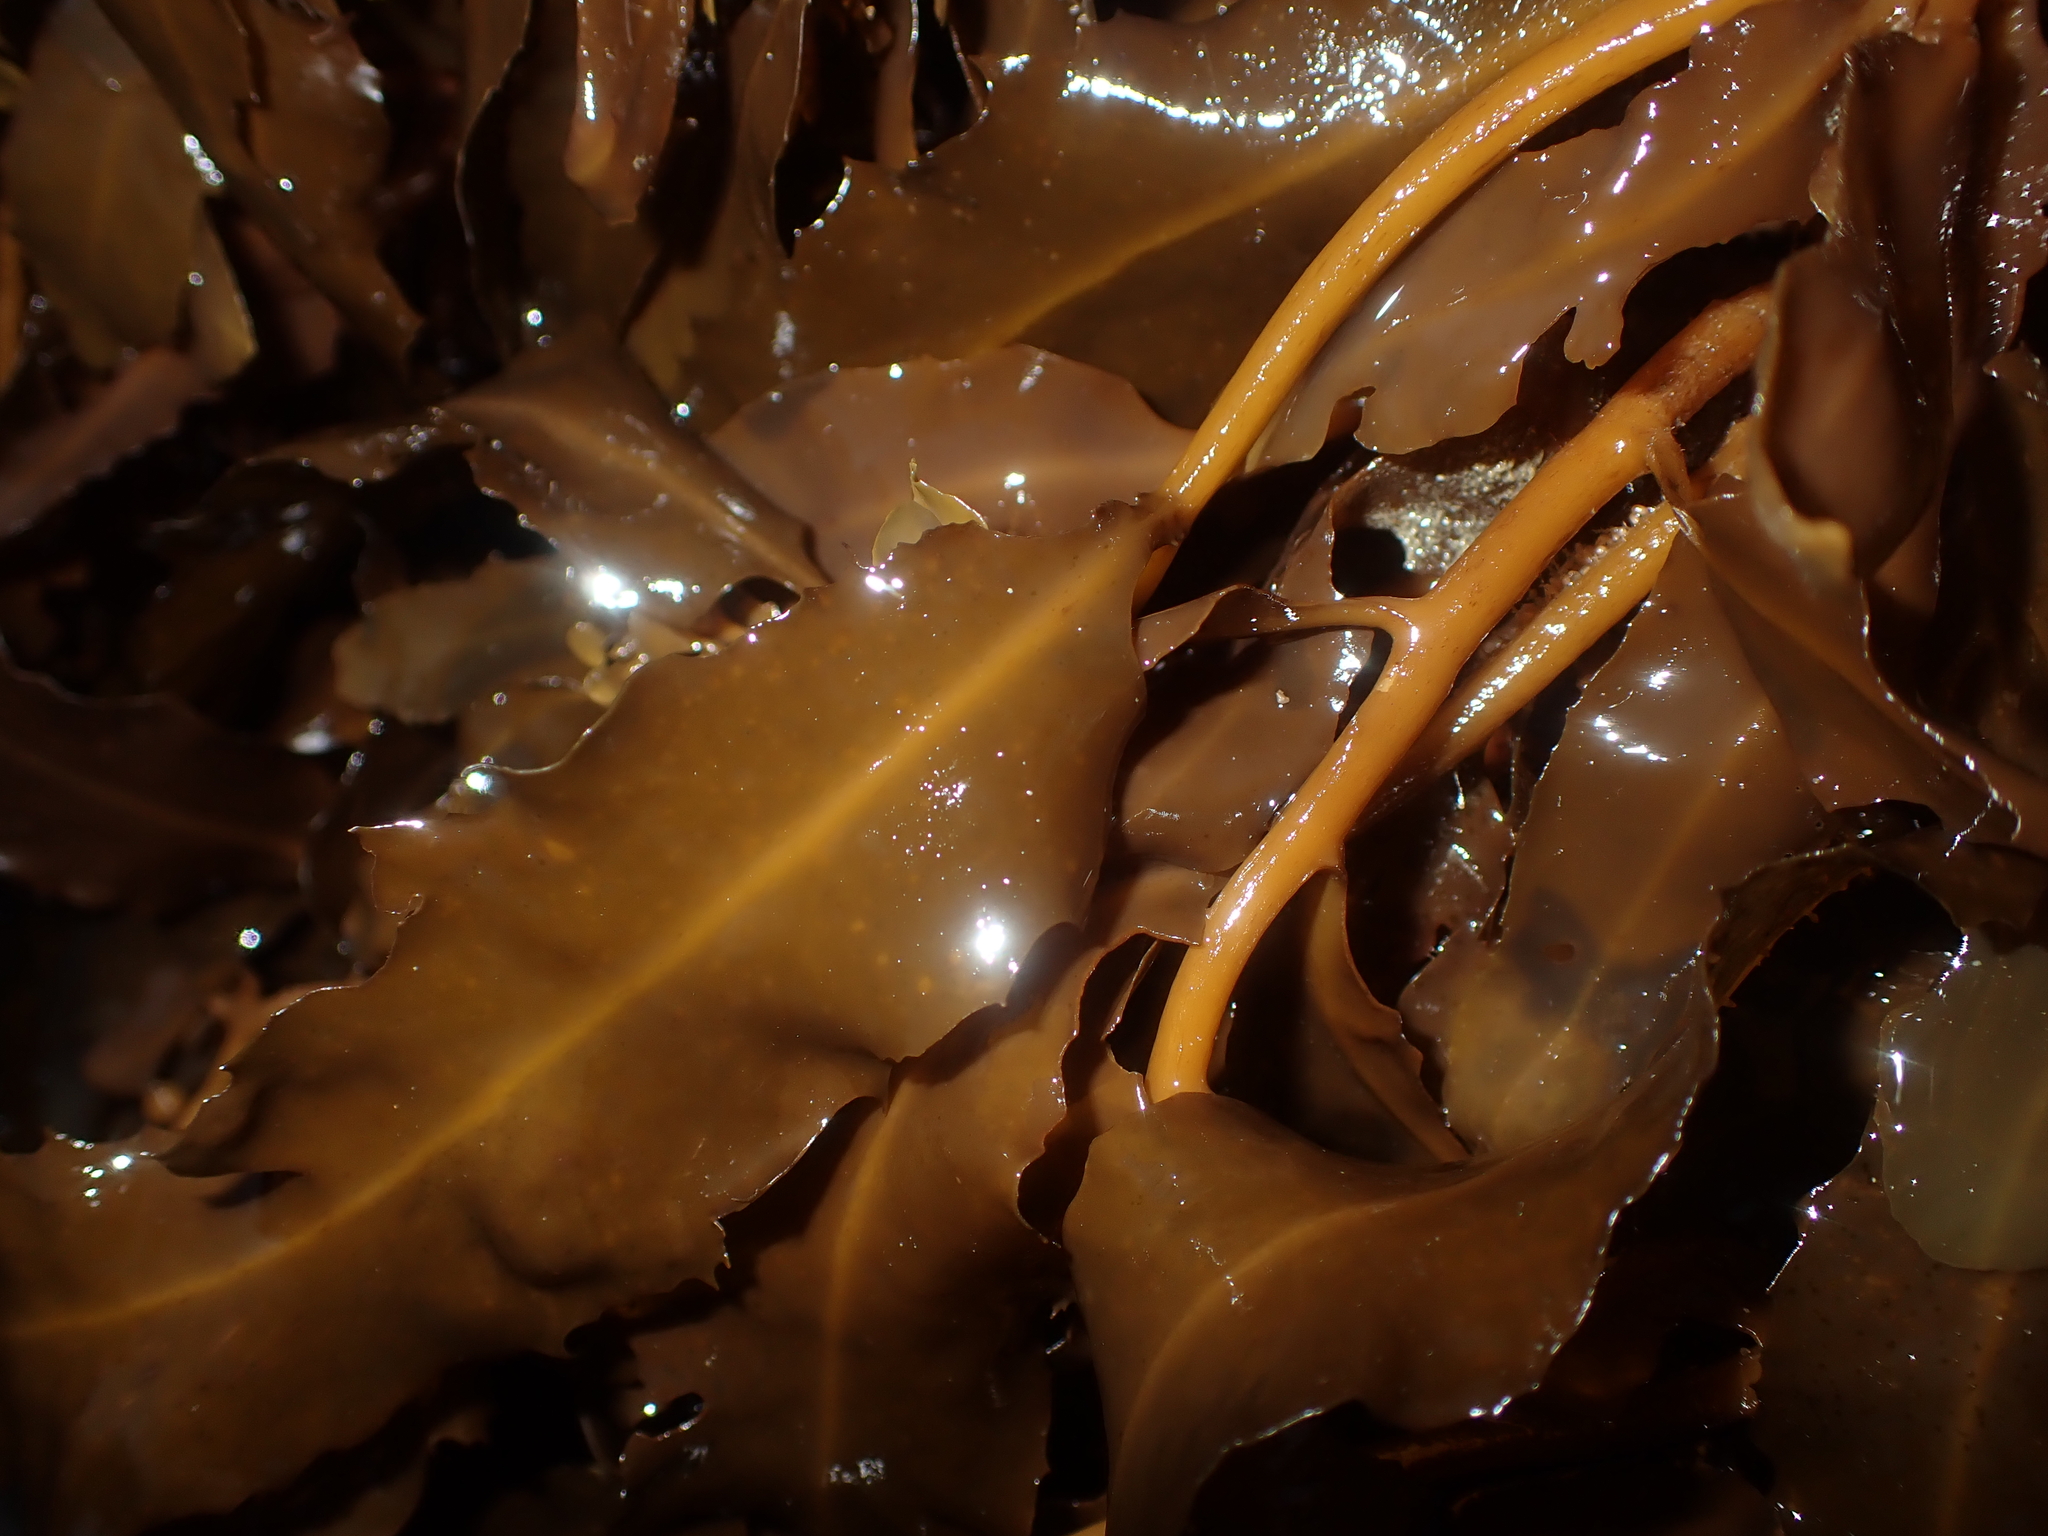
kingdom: Chromista
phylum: Ochrophyta
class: Phaeophyceae
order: Fucales
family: Sargassaceae
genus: Sargassum
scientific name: Sargassum sinclairii
